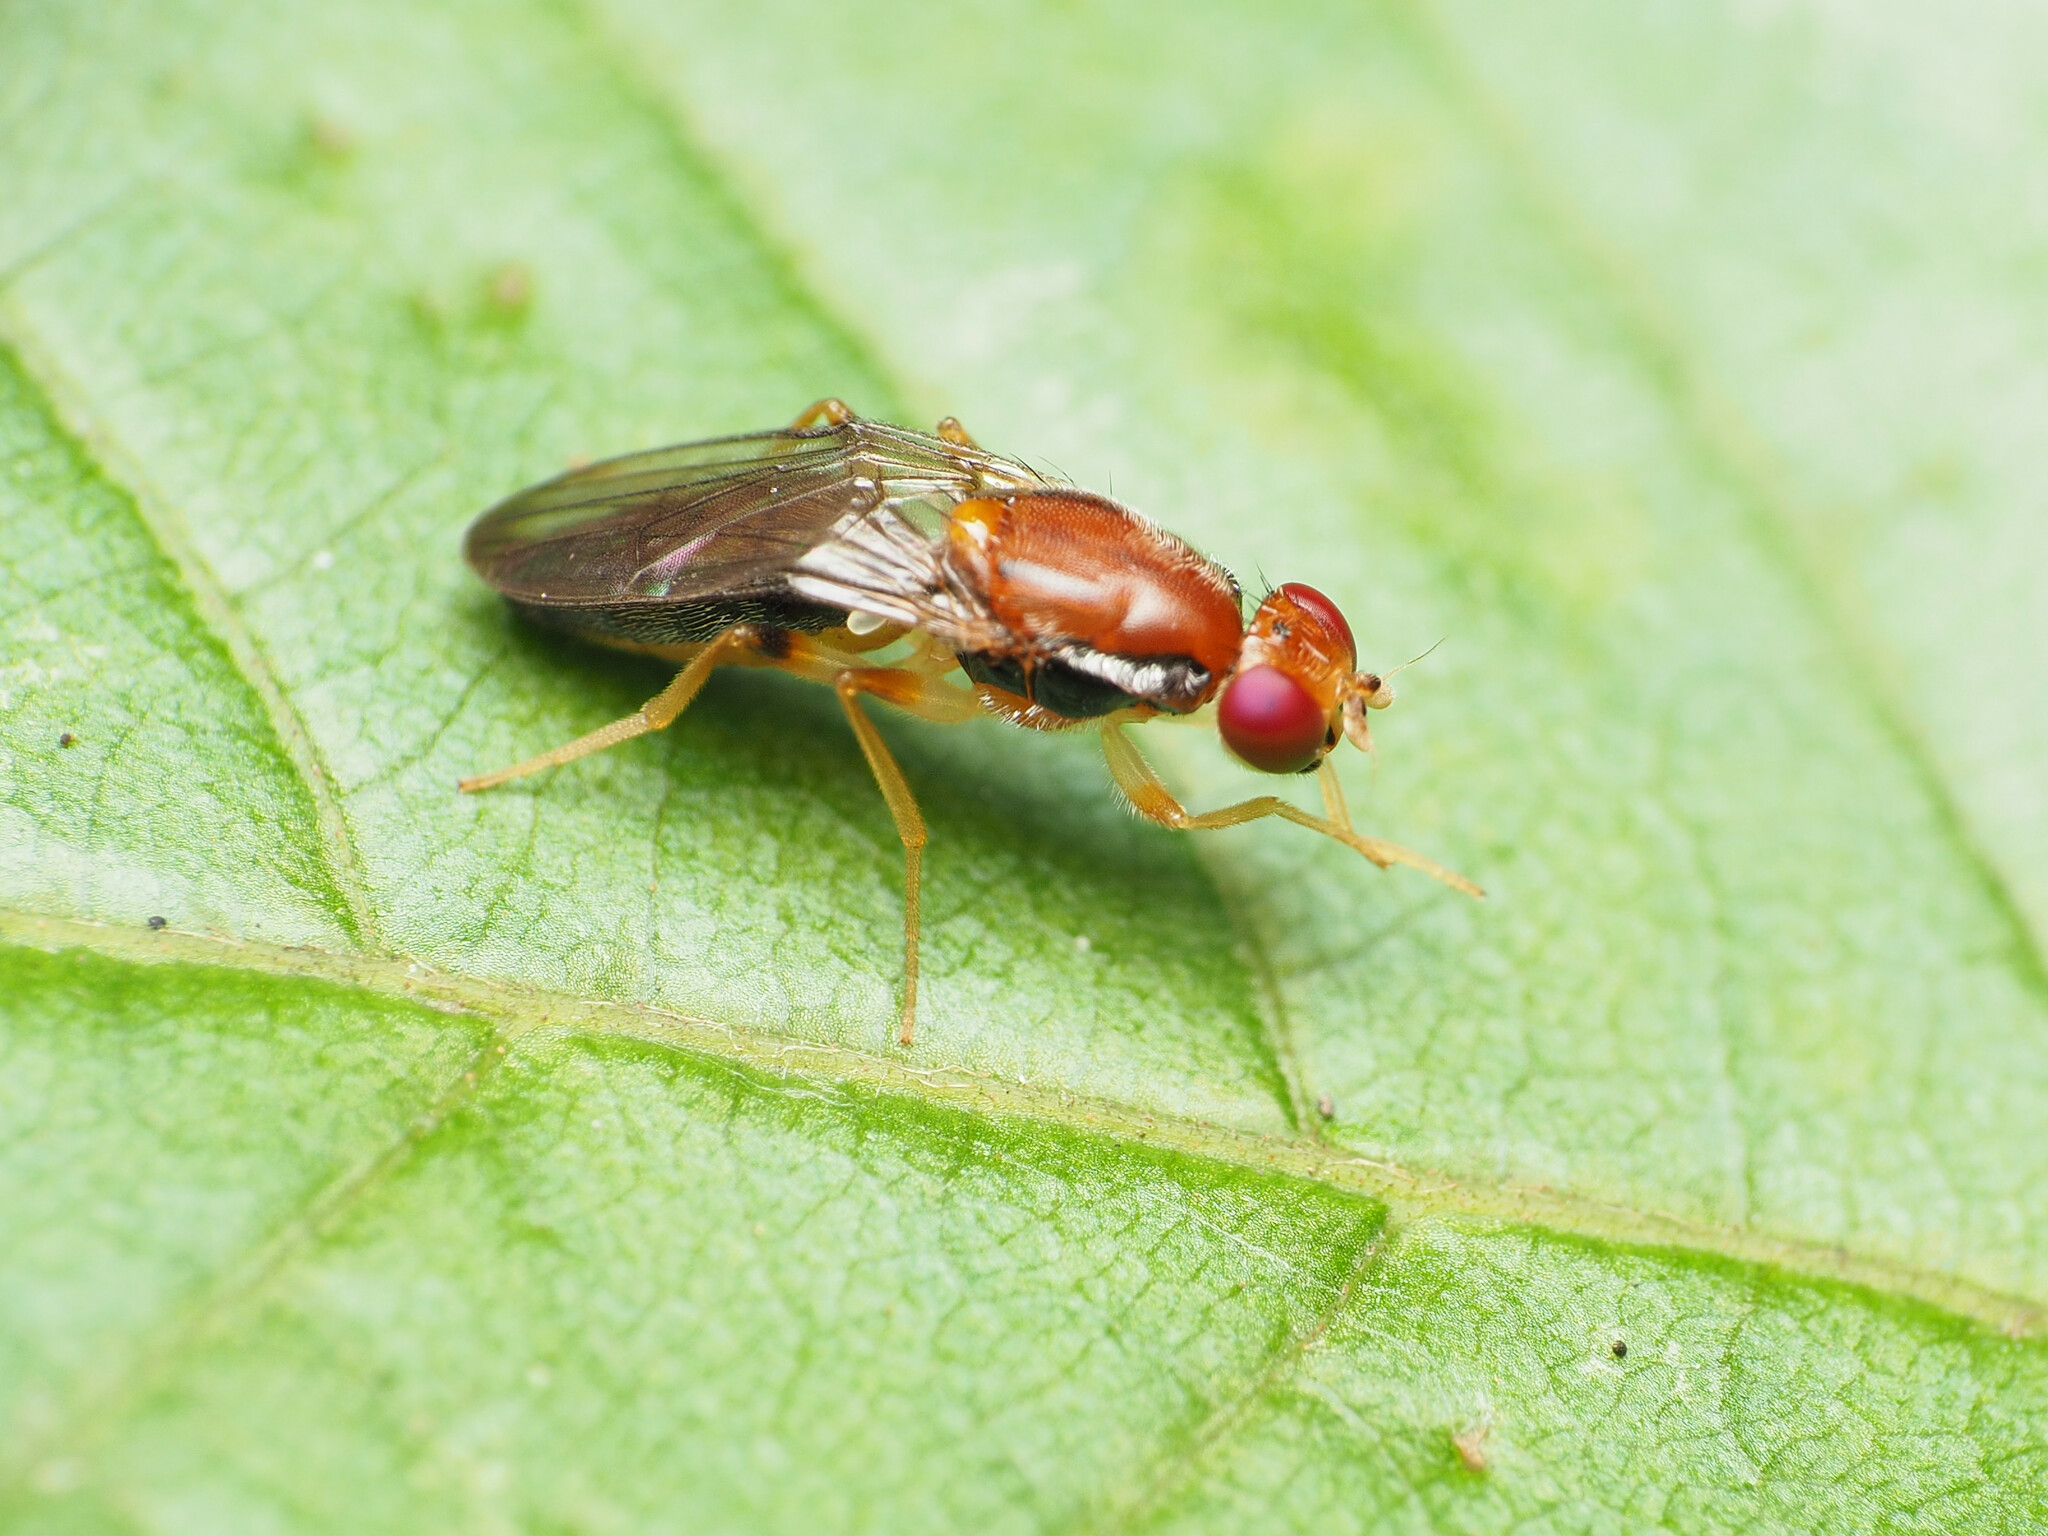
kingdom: Animalia
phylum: Arthropoda
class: Insecta
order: Diptera
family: Psilidae
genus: Chyliza
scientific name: Chyliza apicalis
